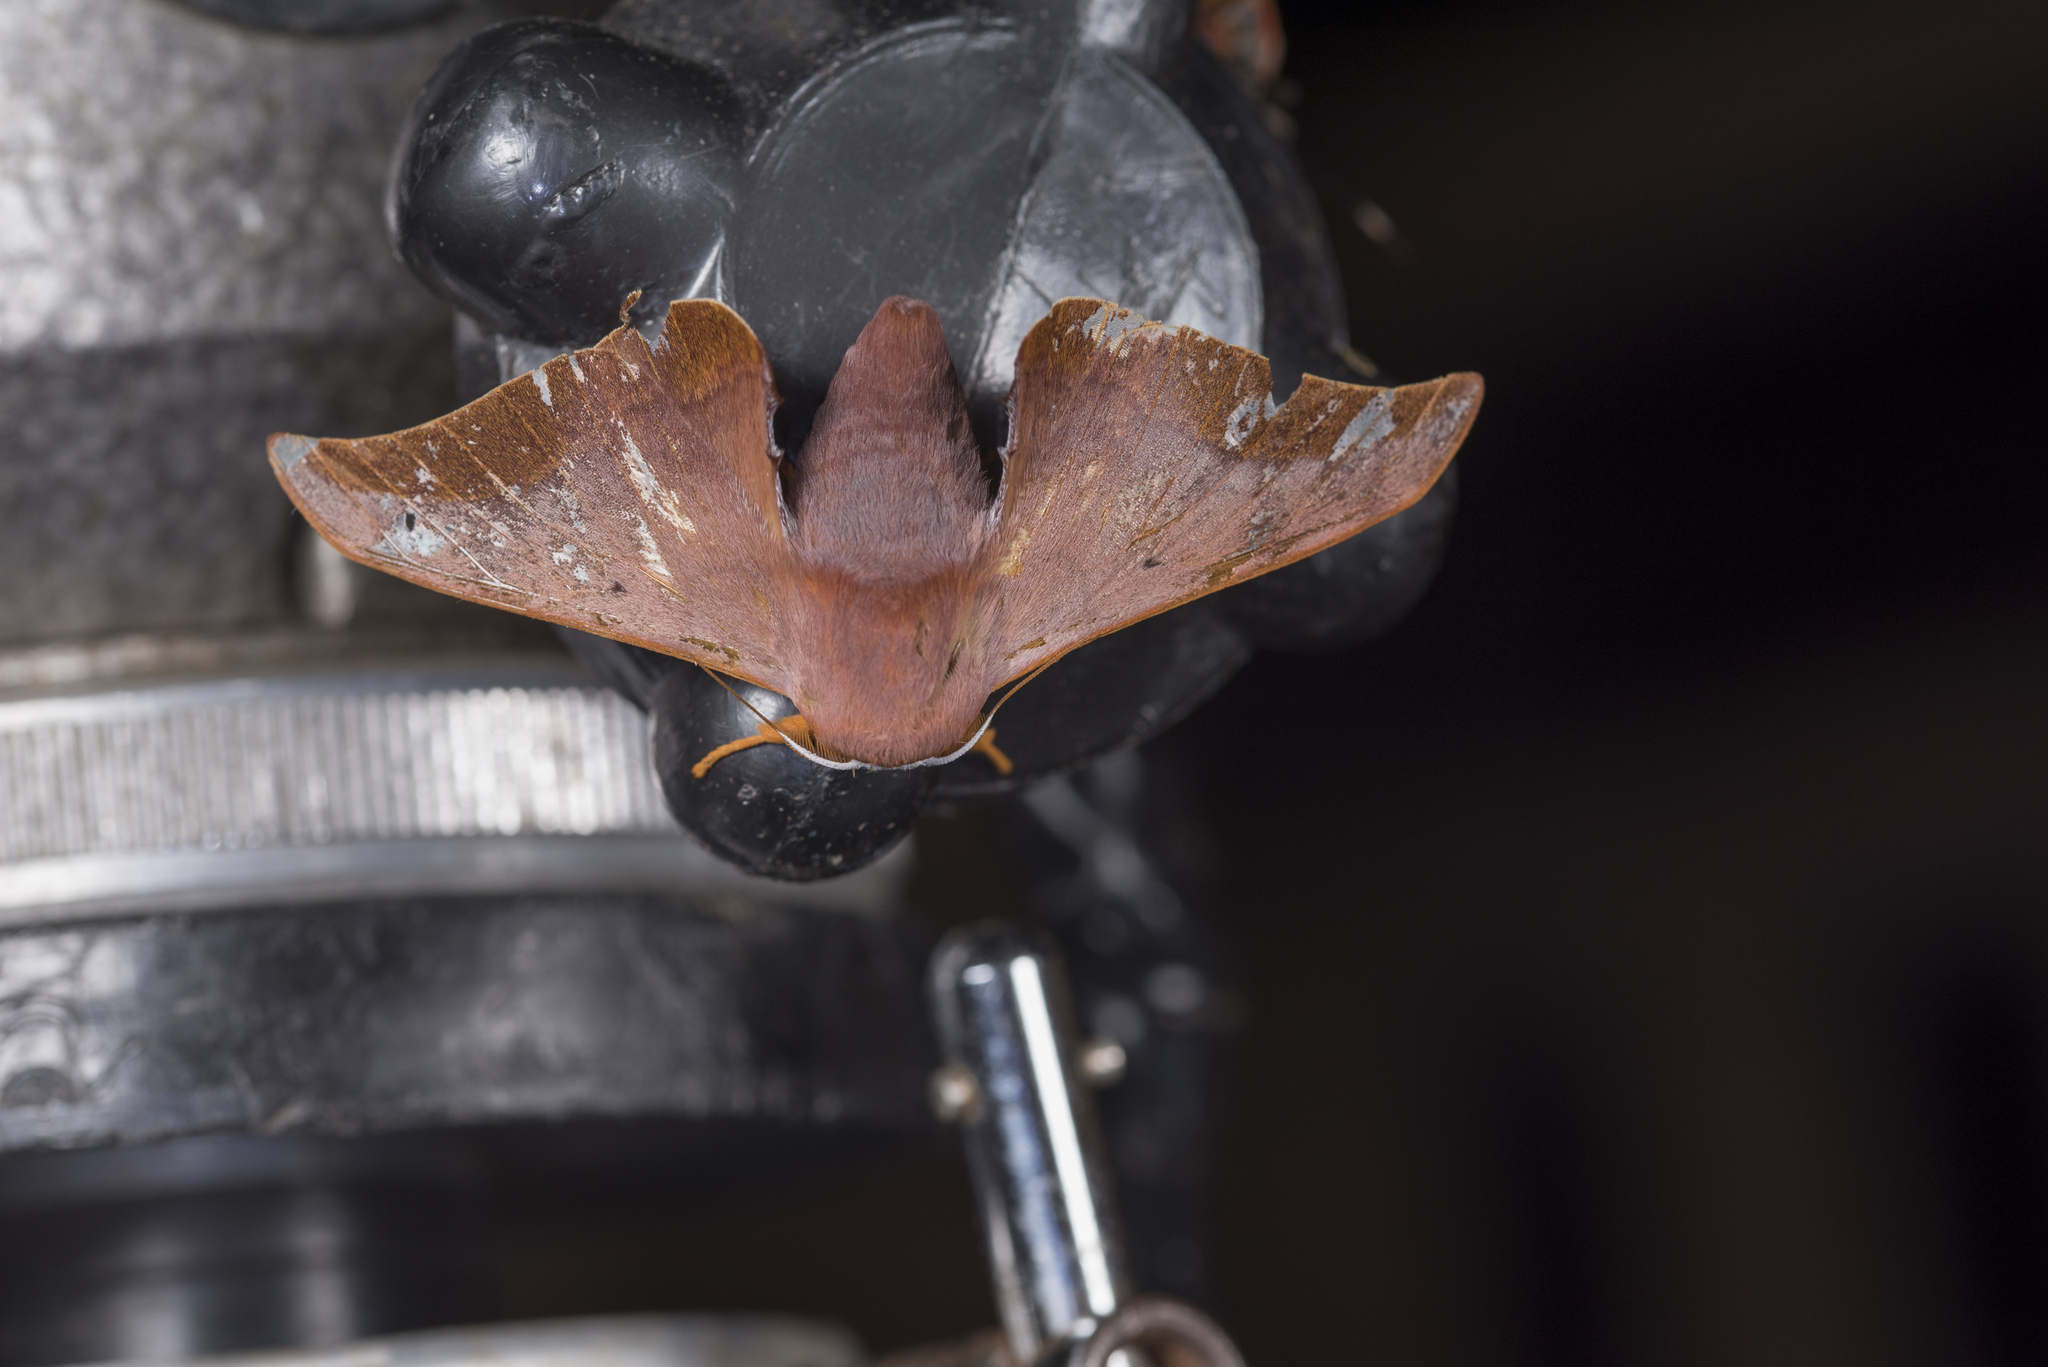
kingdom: Animalia
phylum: Arthropoda
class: Insecta
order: Lepidoptera
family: Endromidae
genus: Comparmustilia
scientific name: Comparmustilia gerontica
